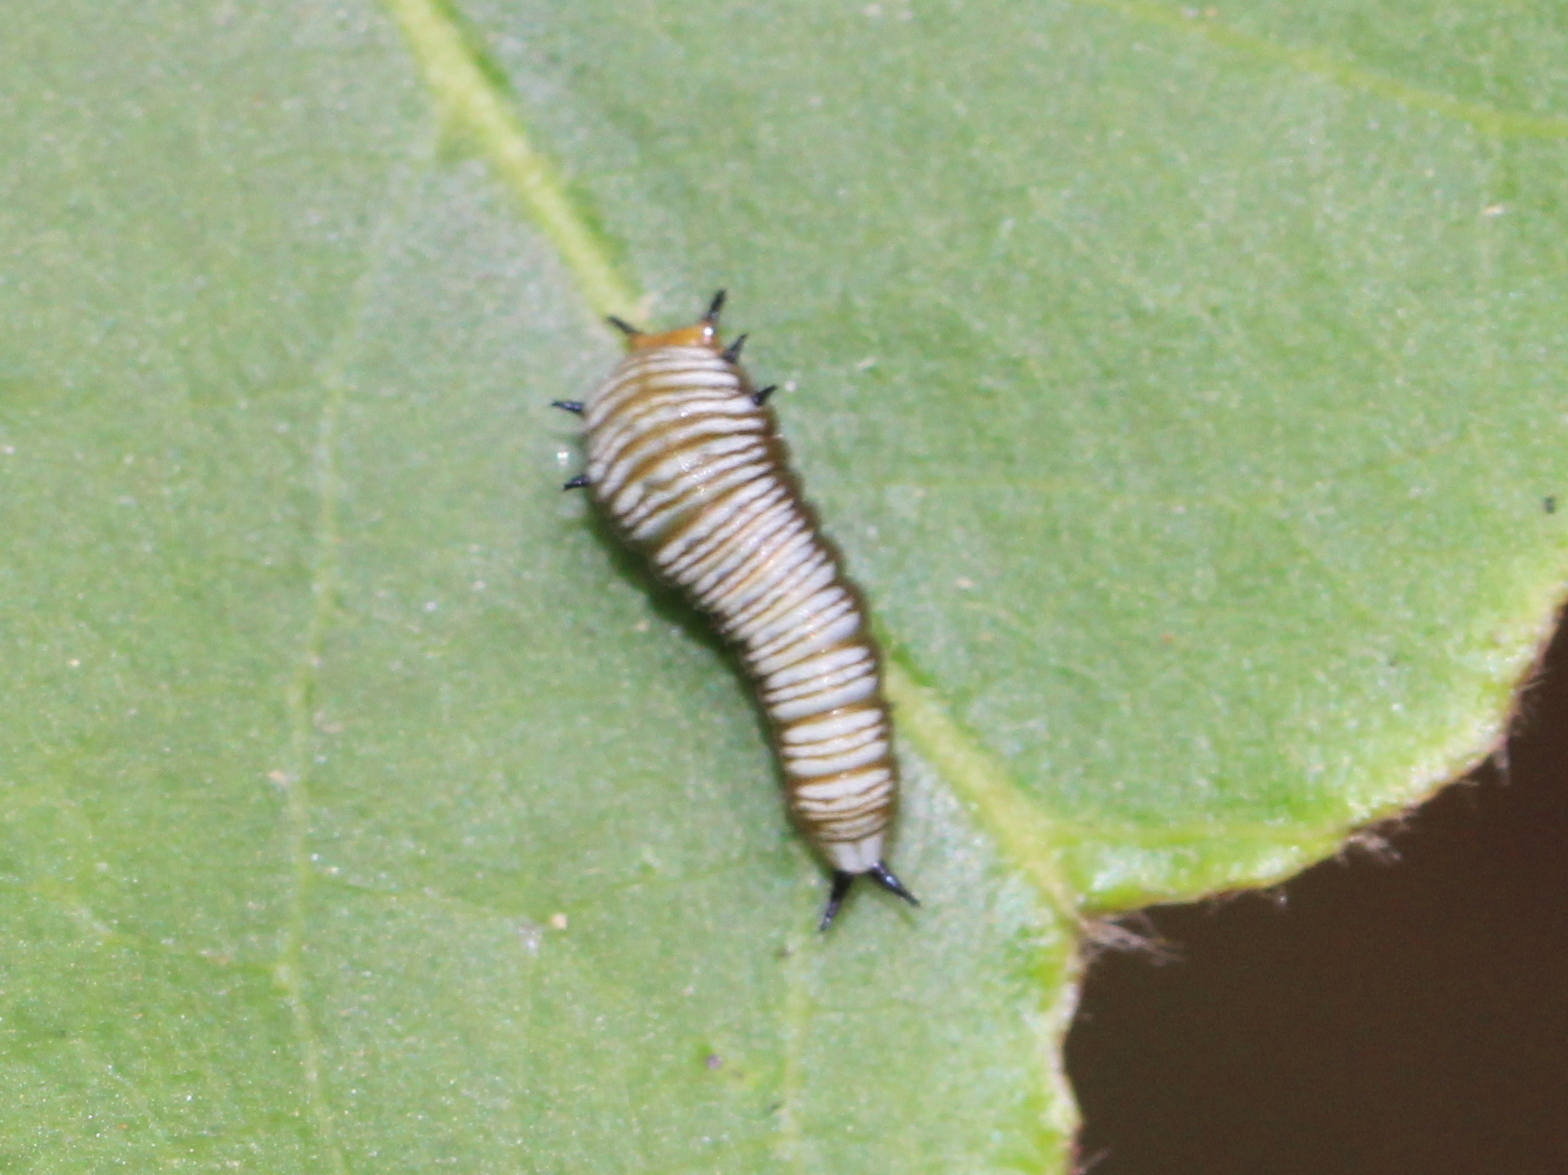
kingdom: Animalia
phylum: Arthropoda
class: Insecta
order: Lepidoptera
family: Papilionidae
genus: Graphium
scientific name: Graphium nomius
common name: Spot swordtail
